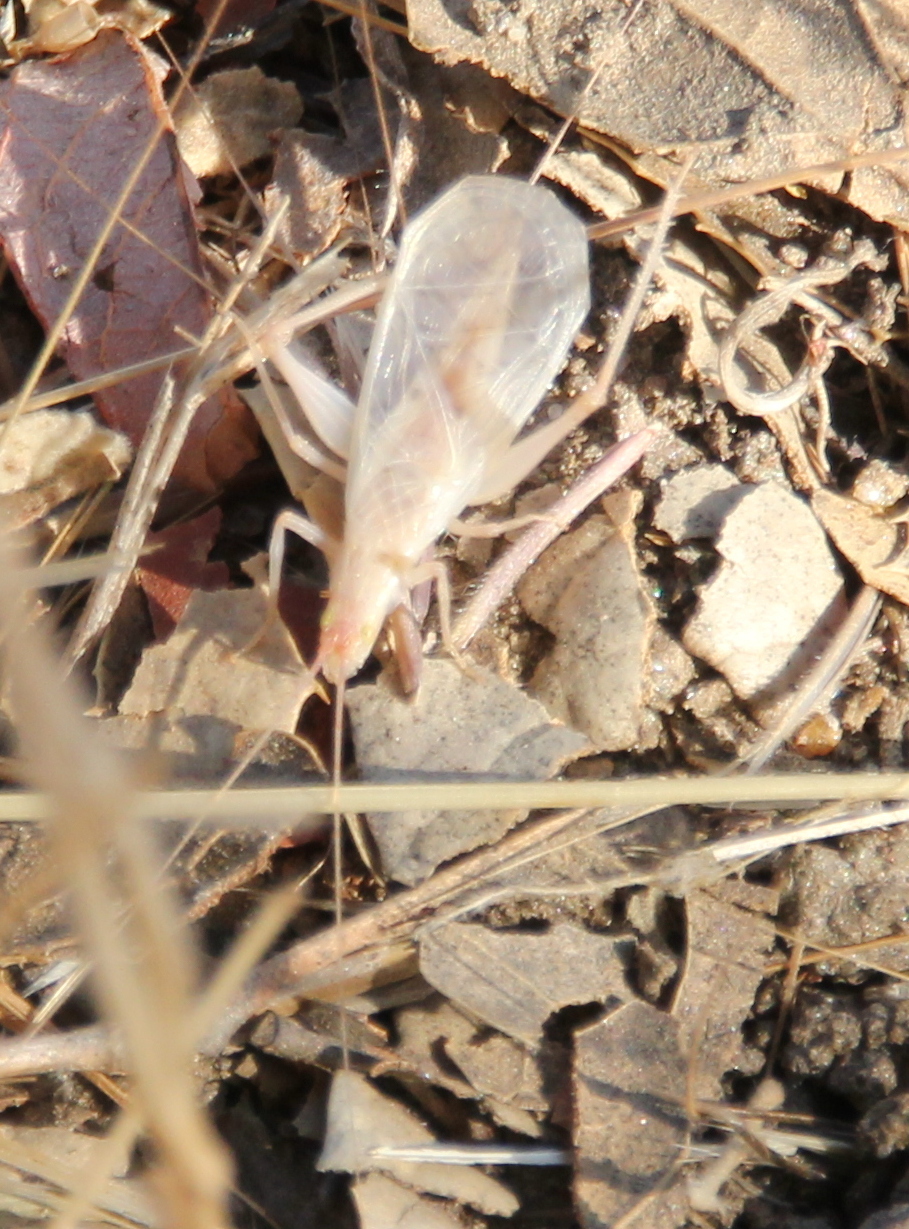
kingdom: Animalia
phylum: Arthropoda
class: Insecta
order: Orthoptera
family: Gryllidae
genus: Oecanthus
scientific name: Oecanthus californicus
